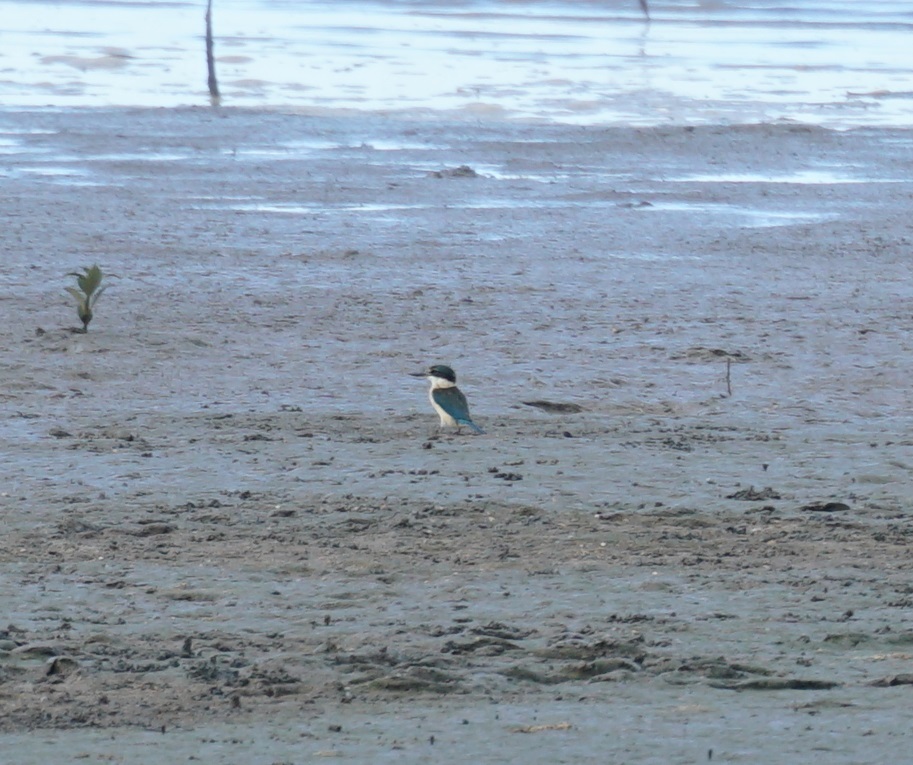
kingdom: Animalia
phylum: Chordata
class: Aves
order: Coraciiformes
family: Alcedinidae
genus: Todiramphus
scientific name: Todiramphus sanctus
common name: Sacred kingfisher
